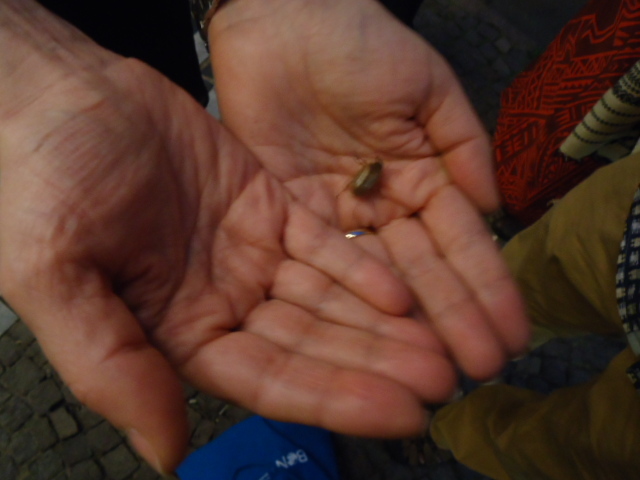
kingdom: Animalia
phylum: Arthropoda
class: Insecta
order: Coleoptera
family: Scarabaeidae
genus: Amphimallon
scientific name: Amphimallon solstitiale
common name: Summer chafer
